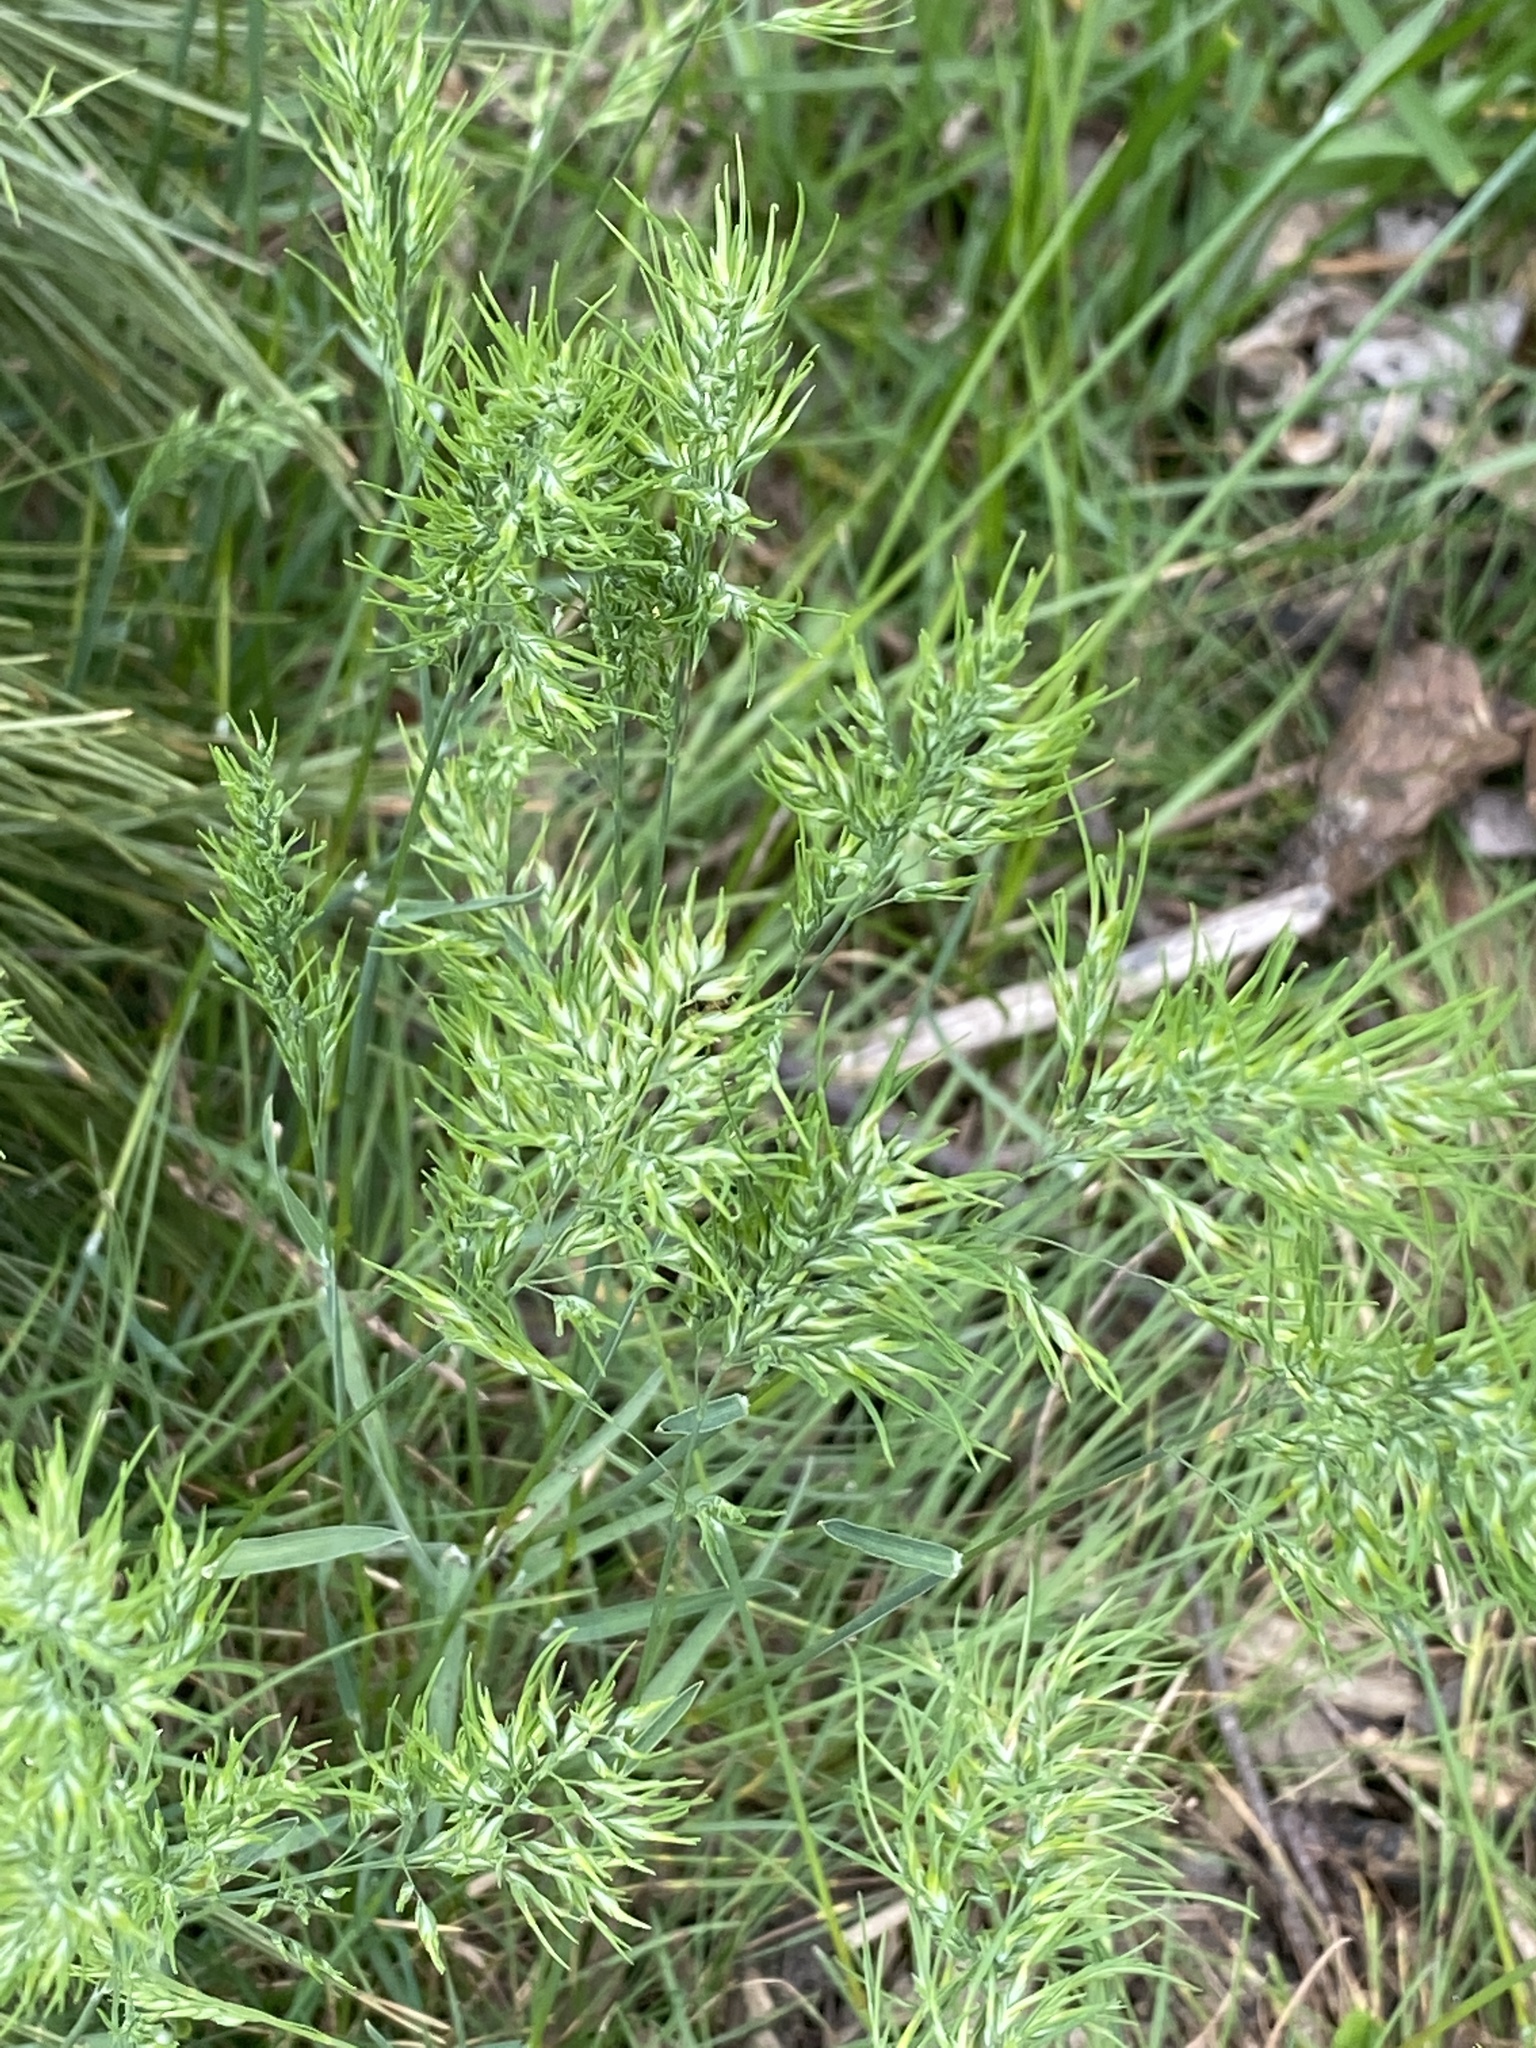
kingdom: Plantae
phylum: Tracheophyta
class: Liliopsida
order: Poales
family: Poaceae
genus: Poa
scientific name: Poa bulbosa
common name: Bulbous bluegrass
